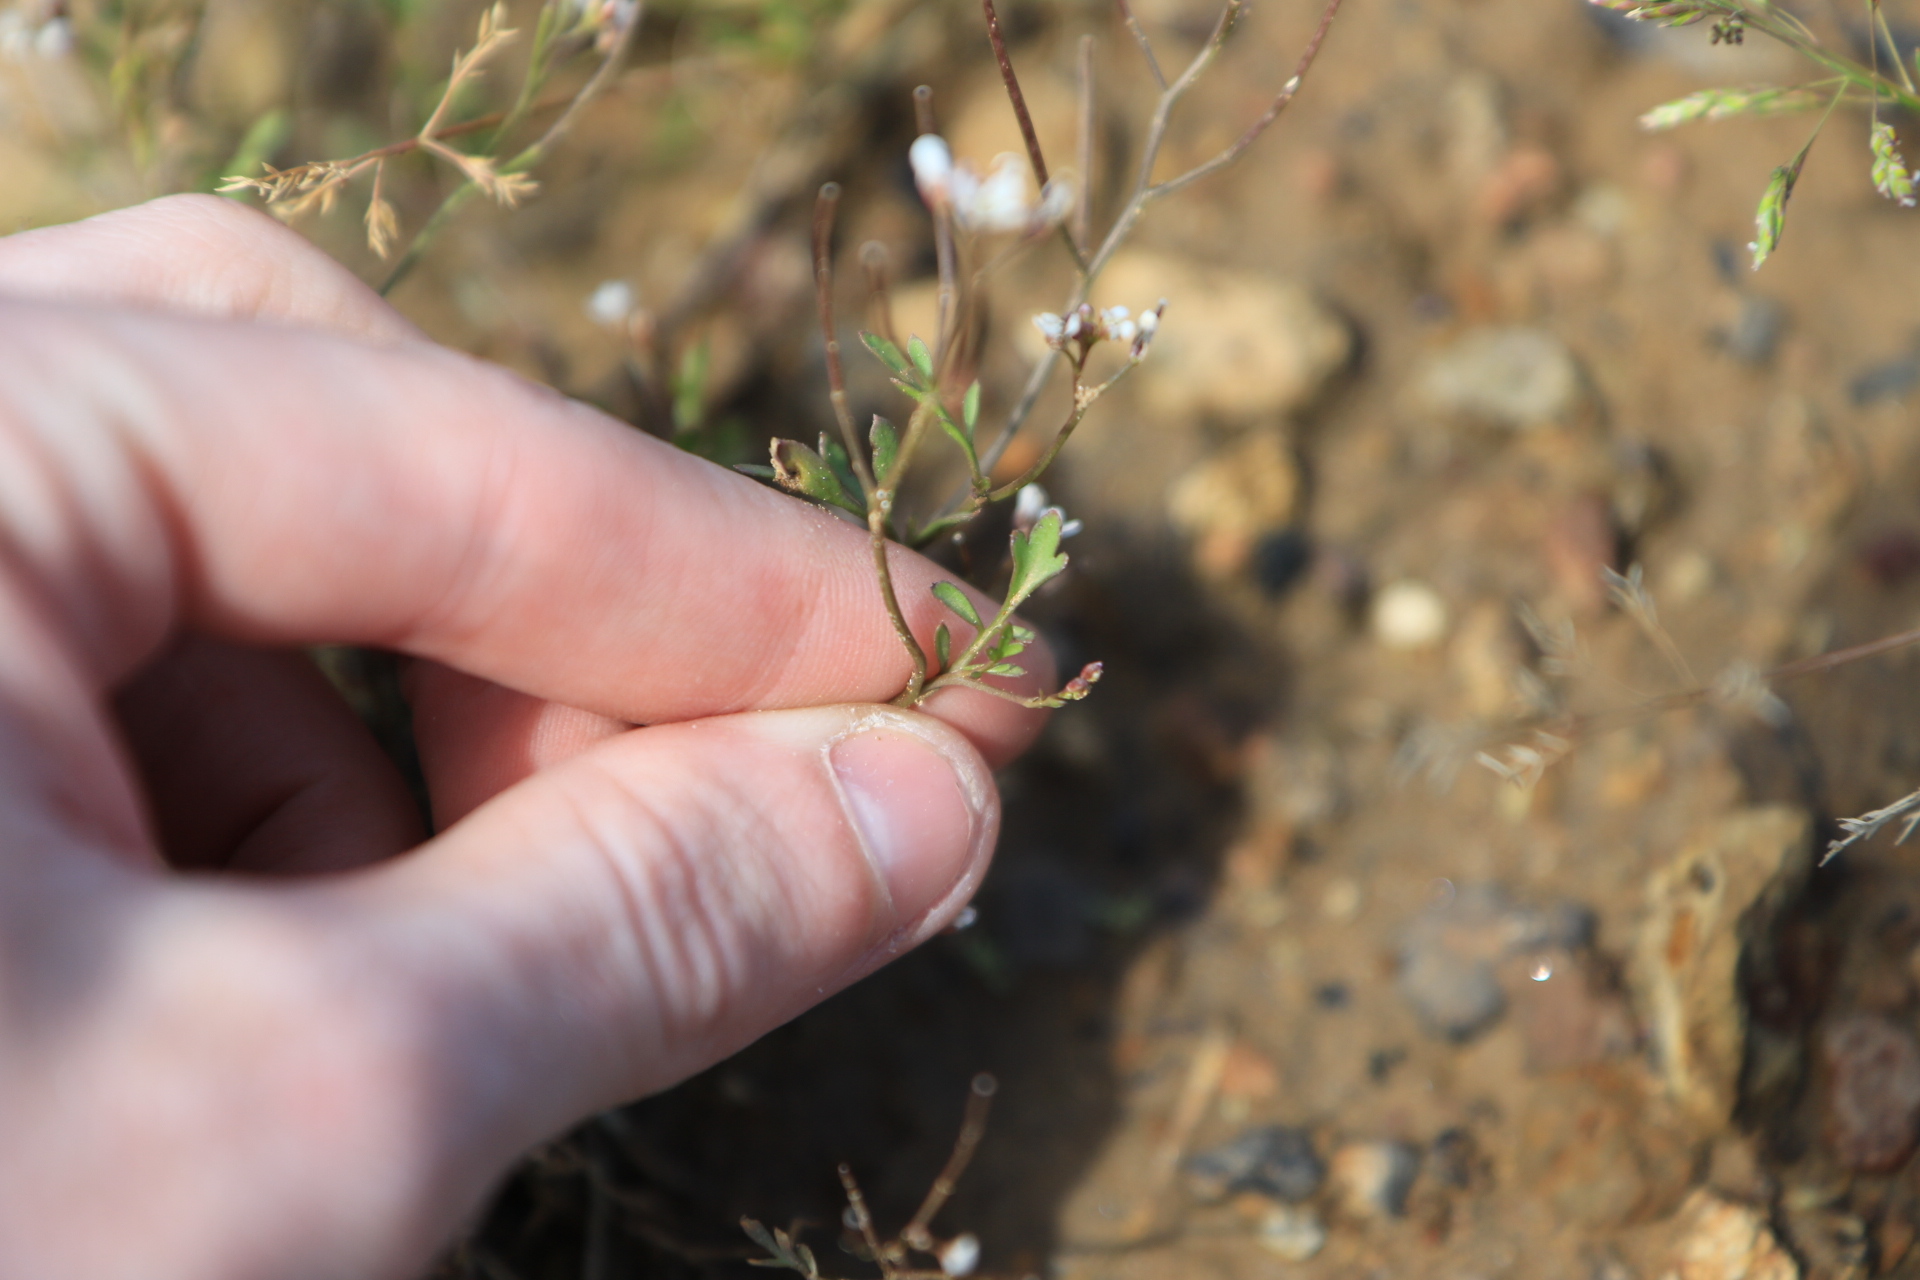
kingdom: Plantae
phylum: Tracheophyta
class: Magnoliopsida
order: Brassicales
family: Brassicaceae
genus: Cardamine
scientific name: Cardamine occulta
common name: Asian wavy bittercress
